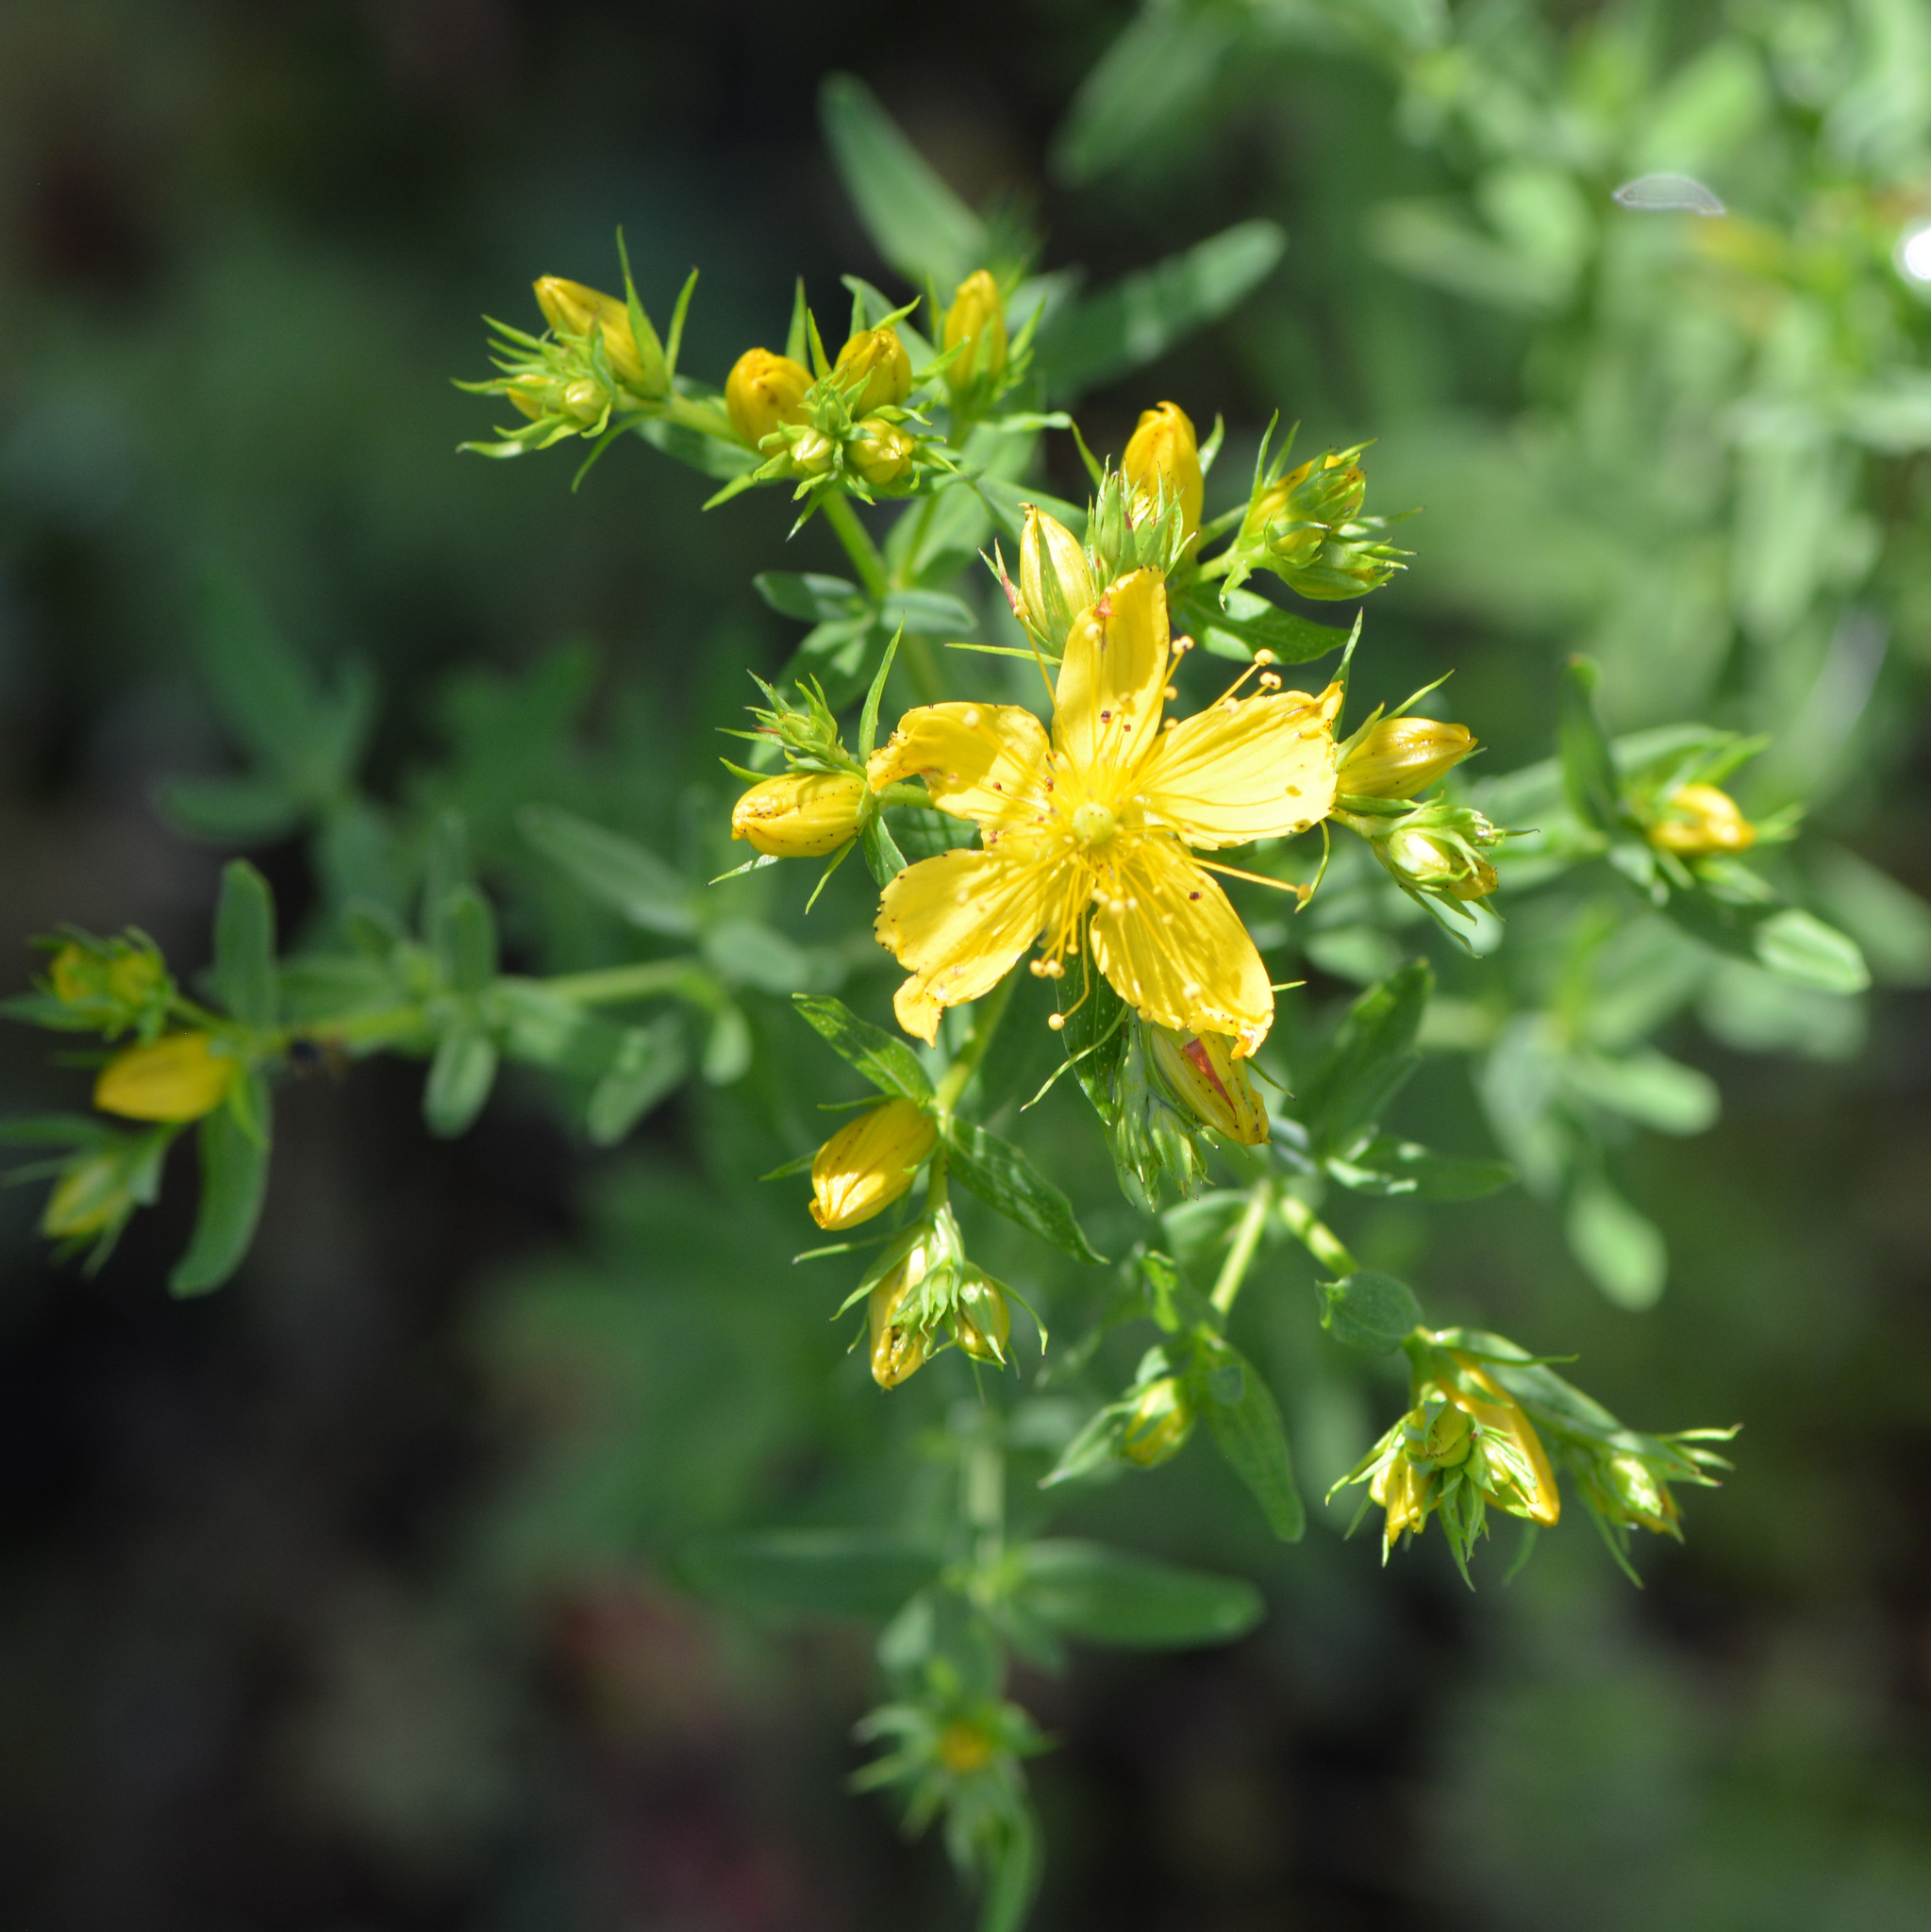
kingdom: Plantae
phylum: Tracheophyta
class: Magnoliopsida
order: Malpighiales
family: Hypericaceae
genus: Hypericum
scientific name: Hypericum perforatum
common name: Common st. johnswort
